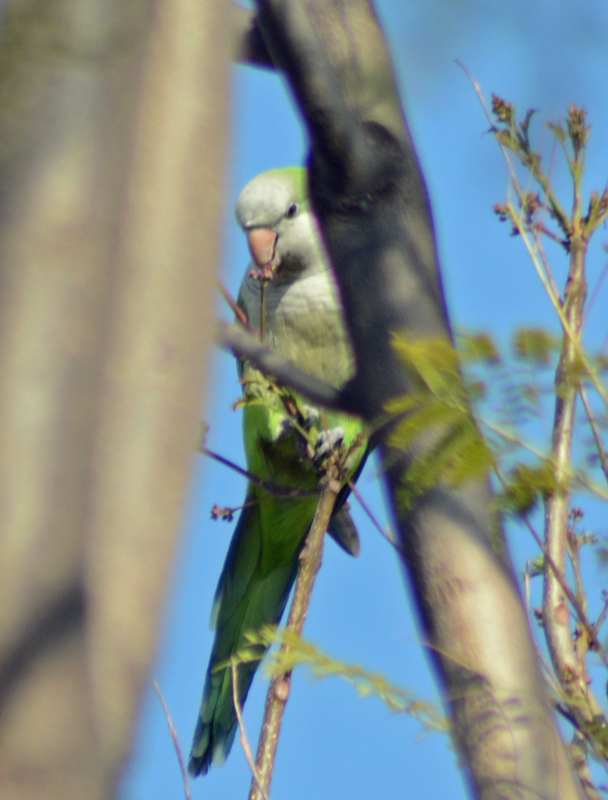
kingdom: Animalia
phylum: Chordata
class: Aves
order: Psittaciformes
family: Psittacidae
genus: Myiopsitta
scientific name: Myiopsitta monachus
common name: Monk parakeet
